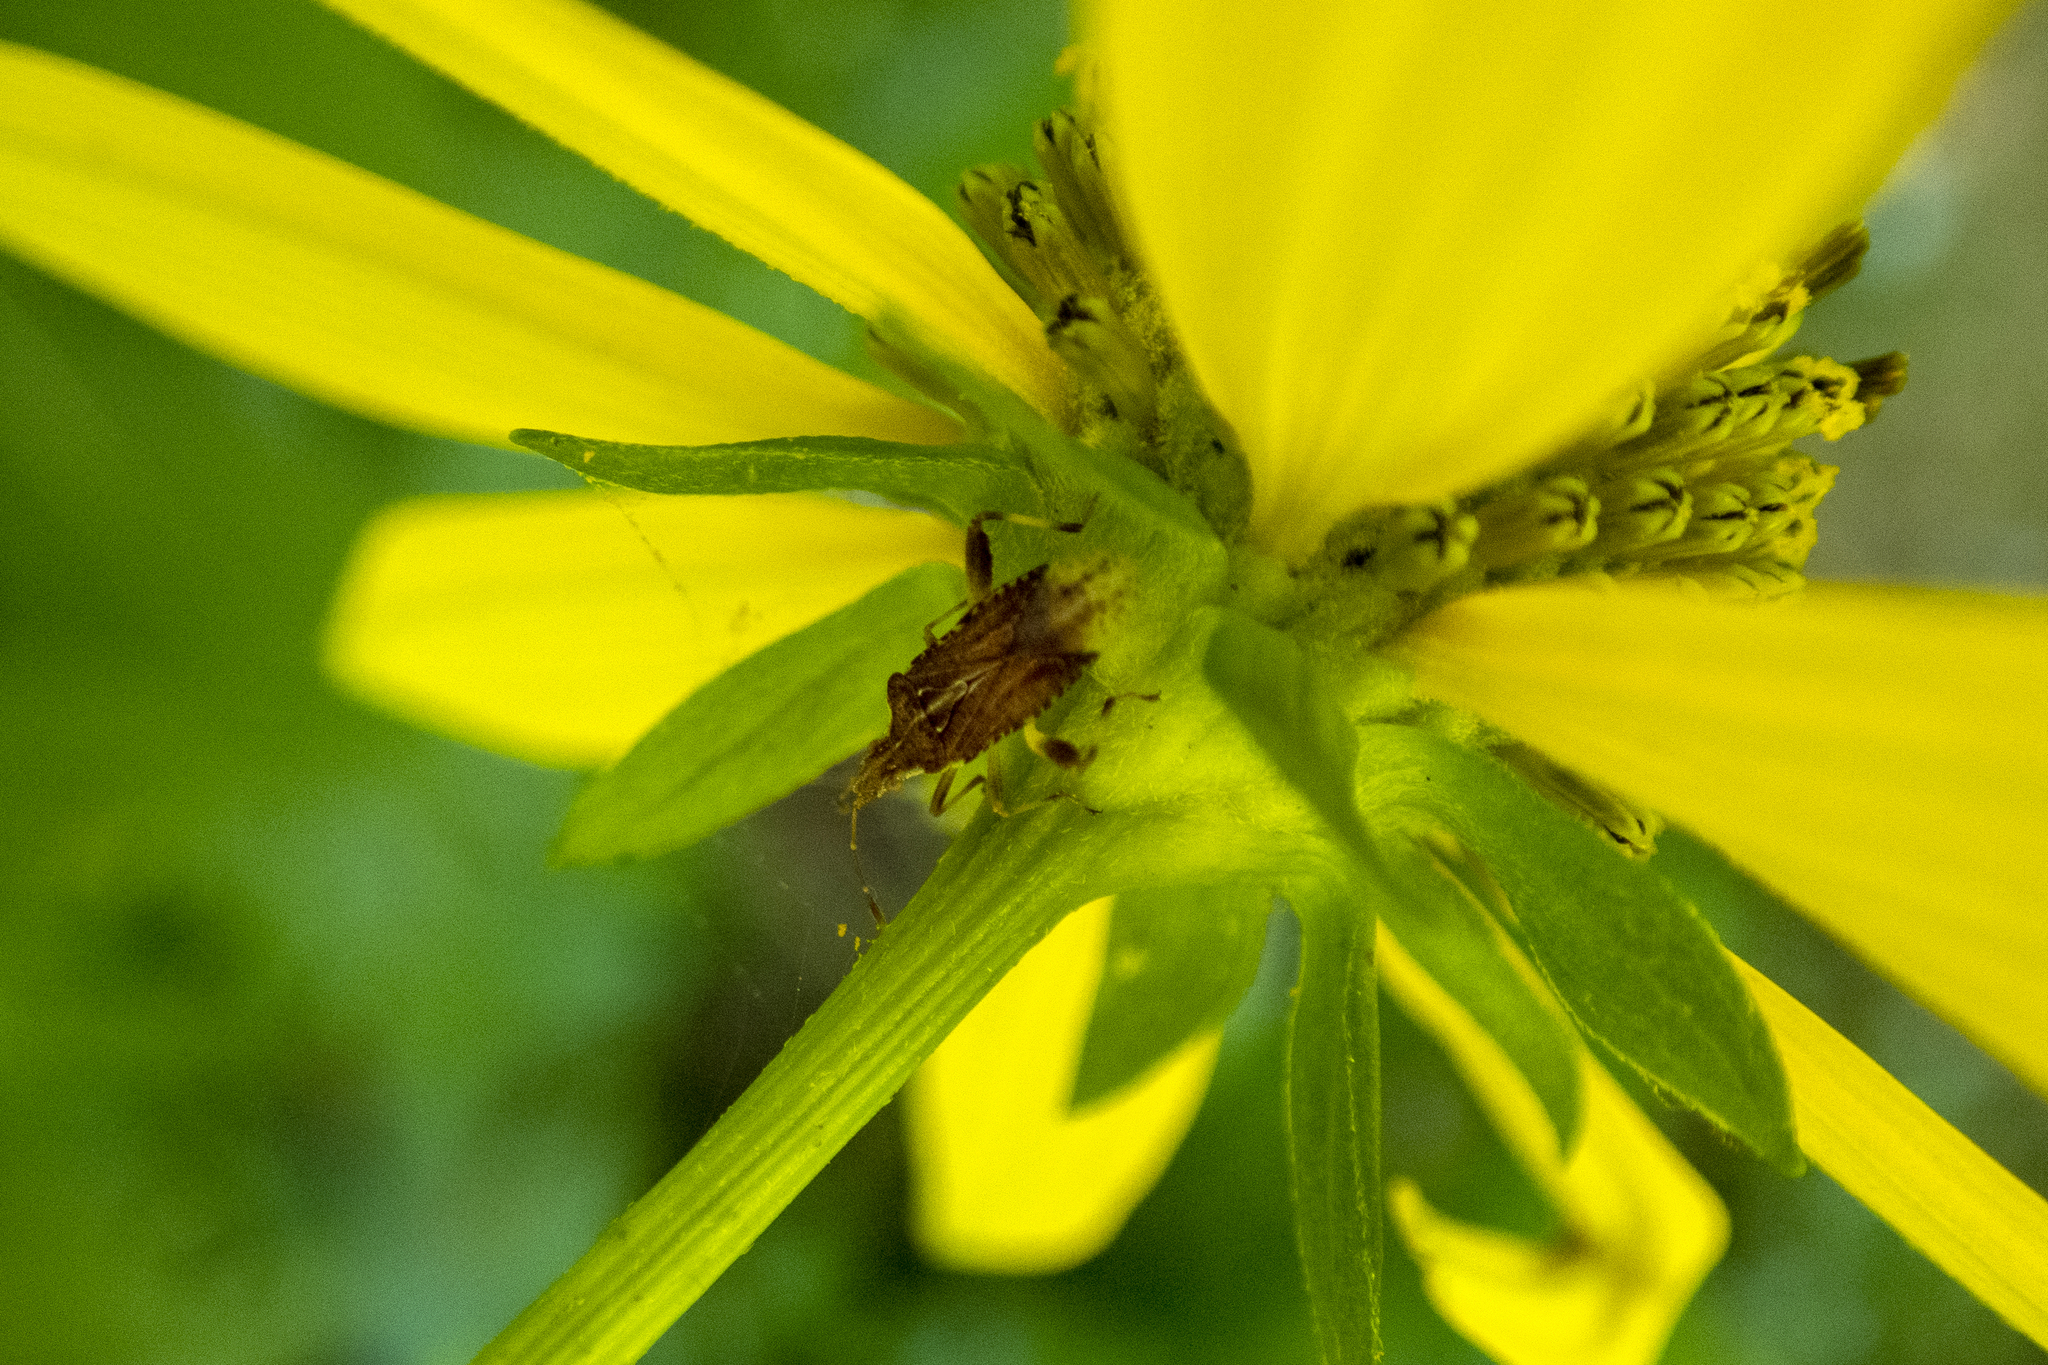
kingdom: Animalia
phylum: Arthropoda
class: Insecta
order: Hemiptera
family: Rhopalidae
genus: Harmostes
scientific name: Harmostes fraterculus
